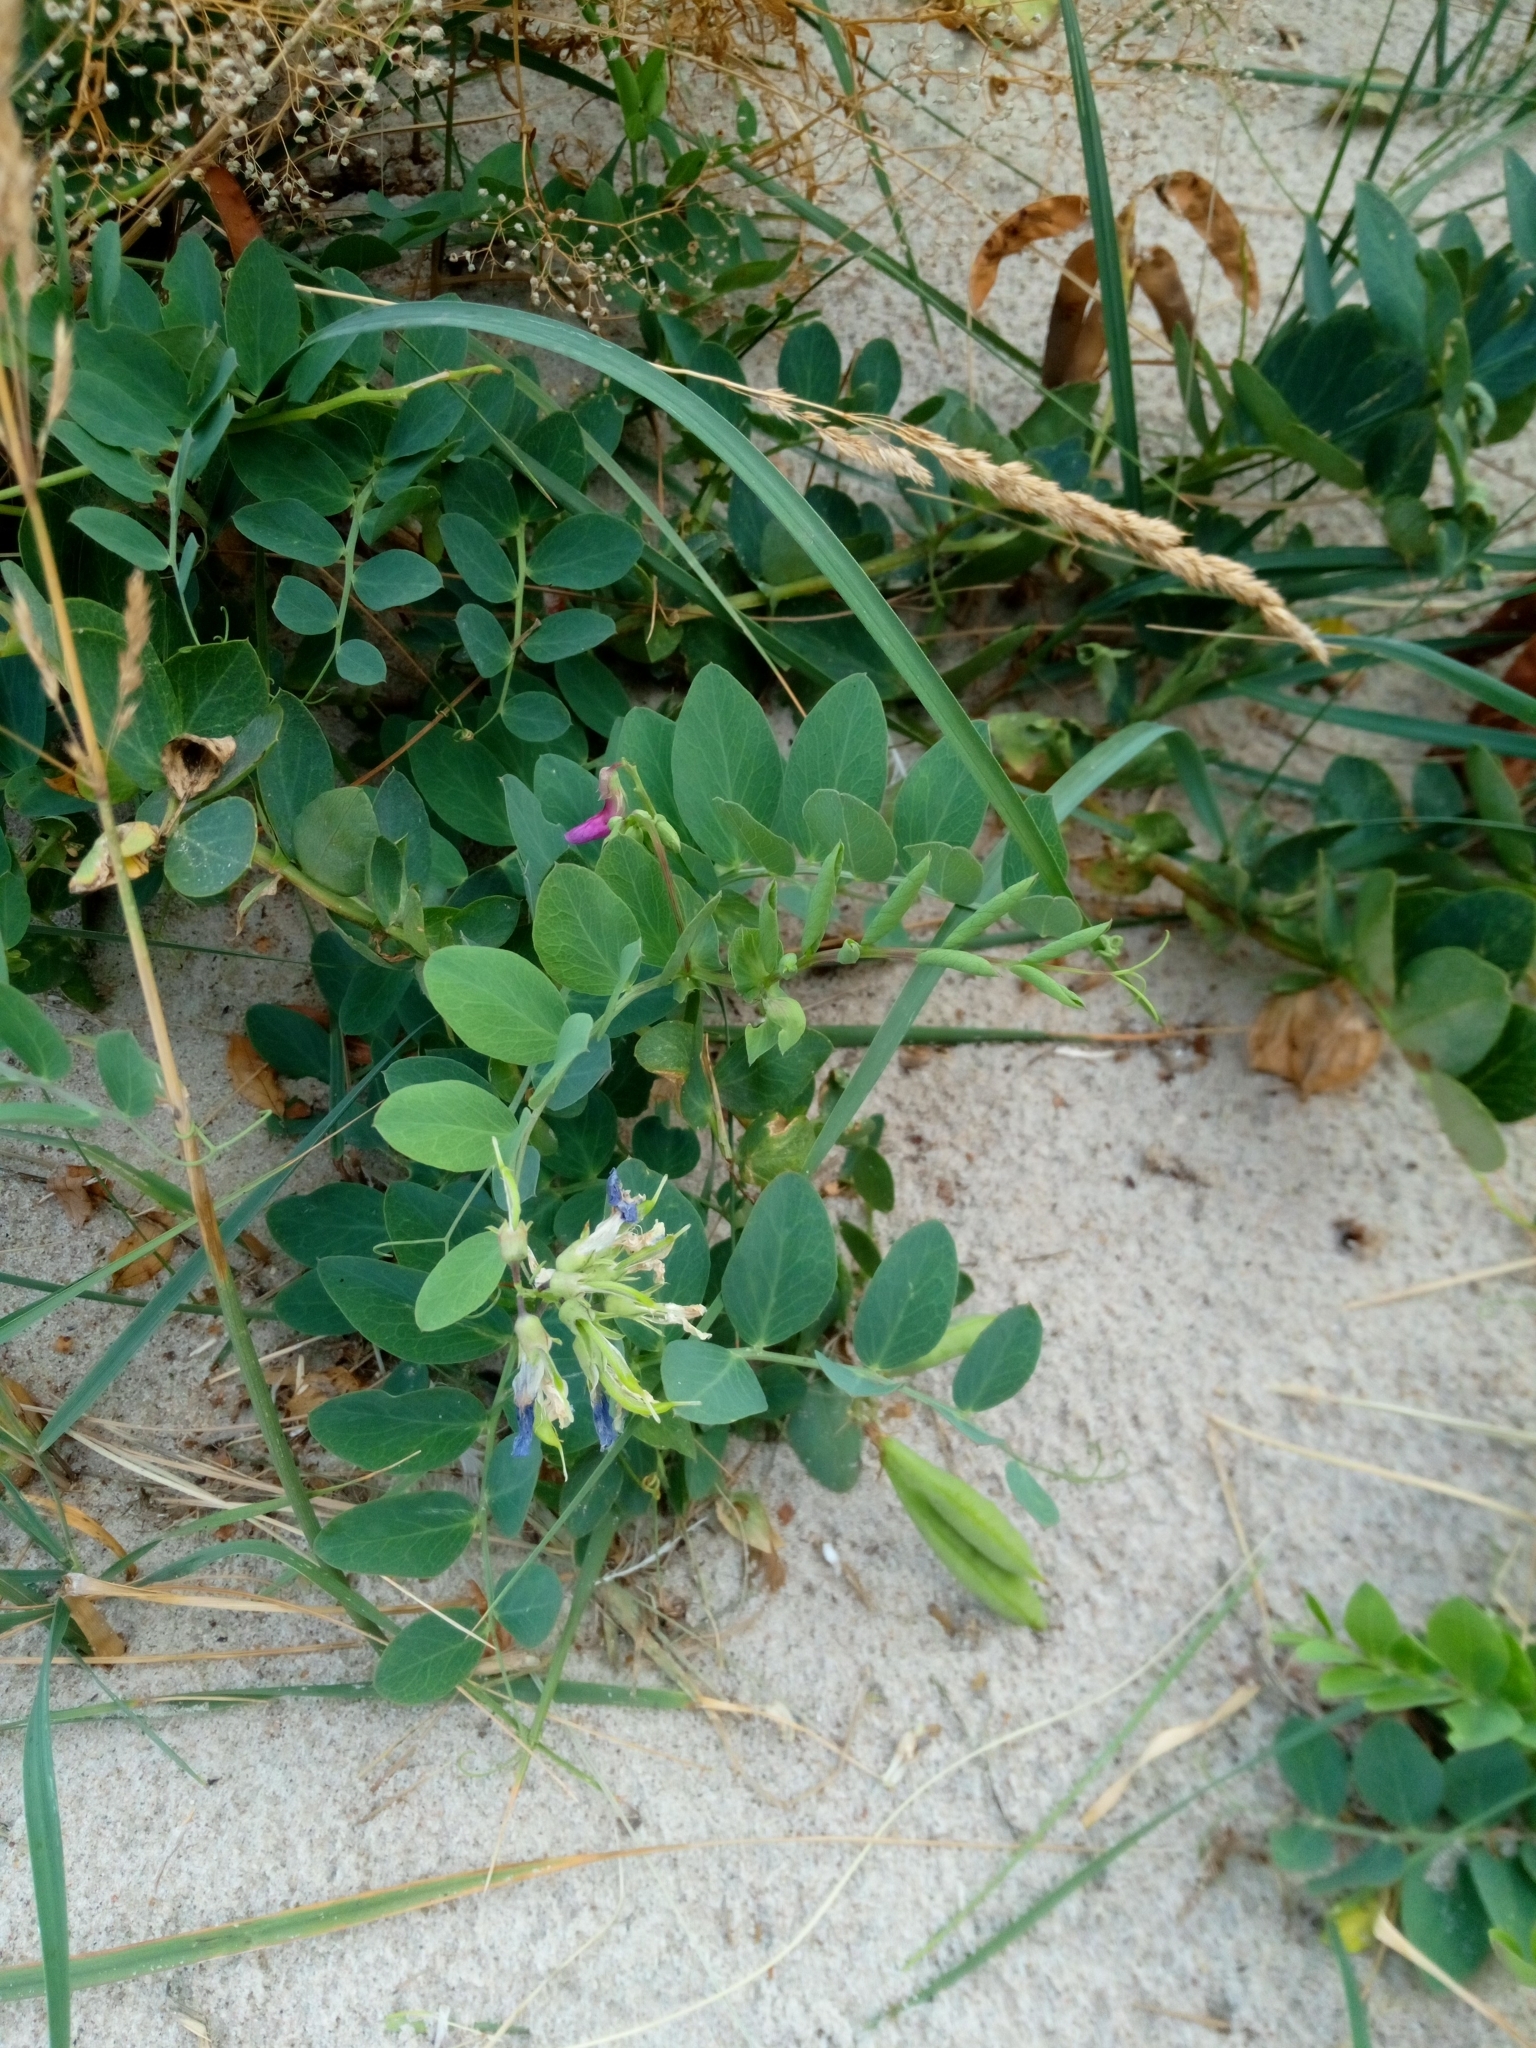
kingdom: Plantae
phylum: Tracheophyta
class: Magnoliopsida
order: Fabales
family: Fabaceae
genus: Lathyrus
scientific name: Lathyrus japonicus
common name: Sea pea
